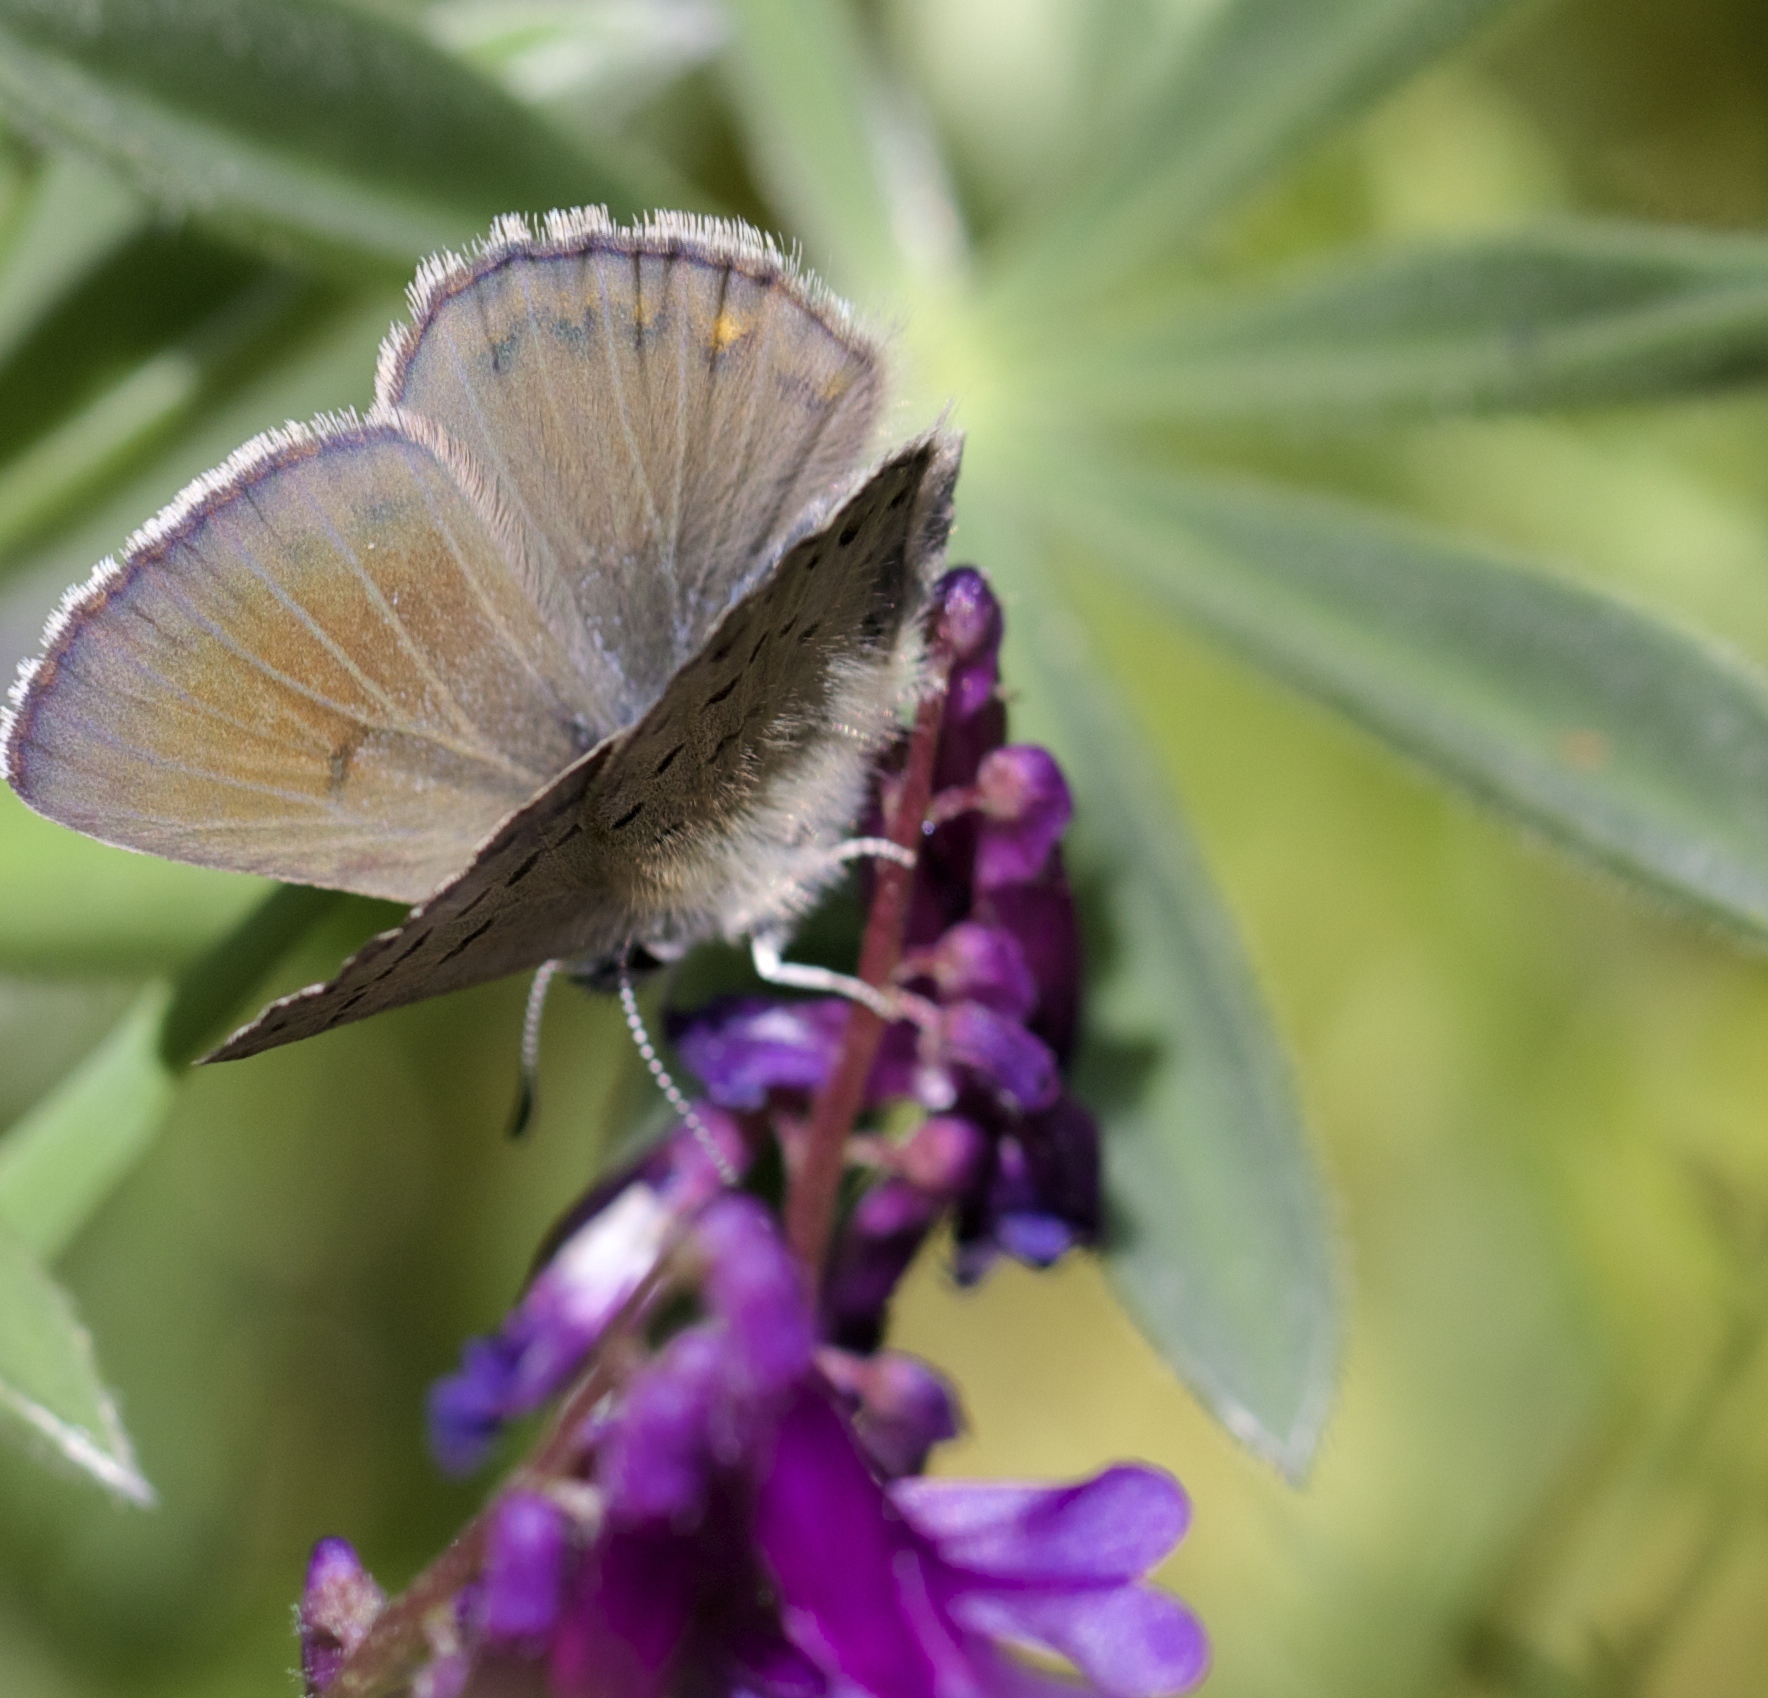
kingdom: Animalia
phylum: Arthropoda
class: Insecta
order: Lepidoptera
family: Lycaenidae
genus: Icaricia
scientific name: Icaricia icarioides
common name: Boisduval's blue
